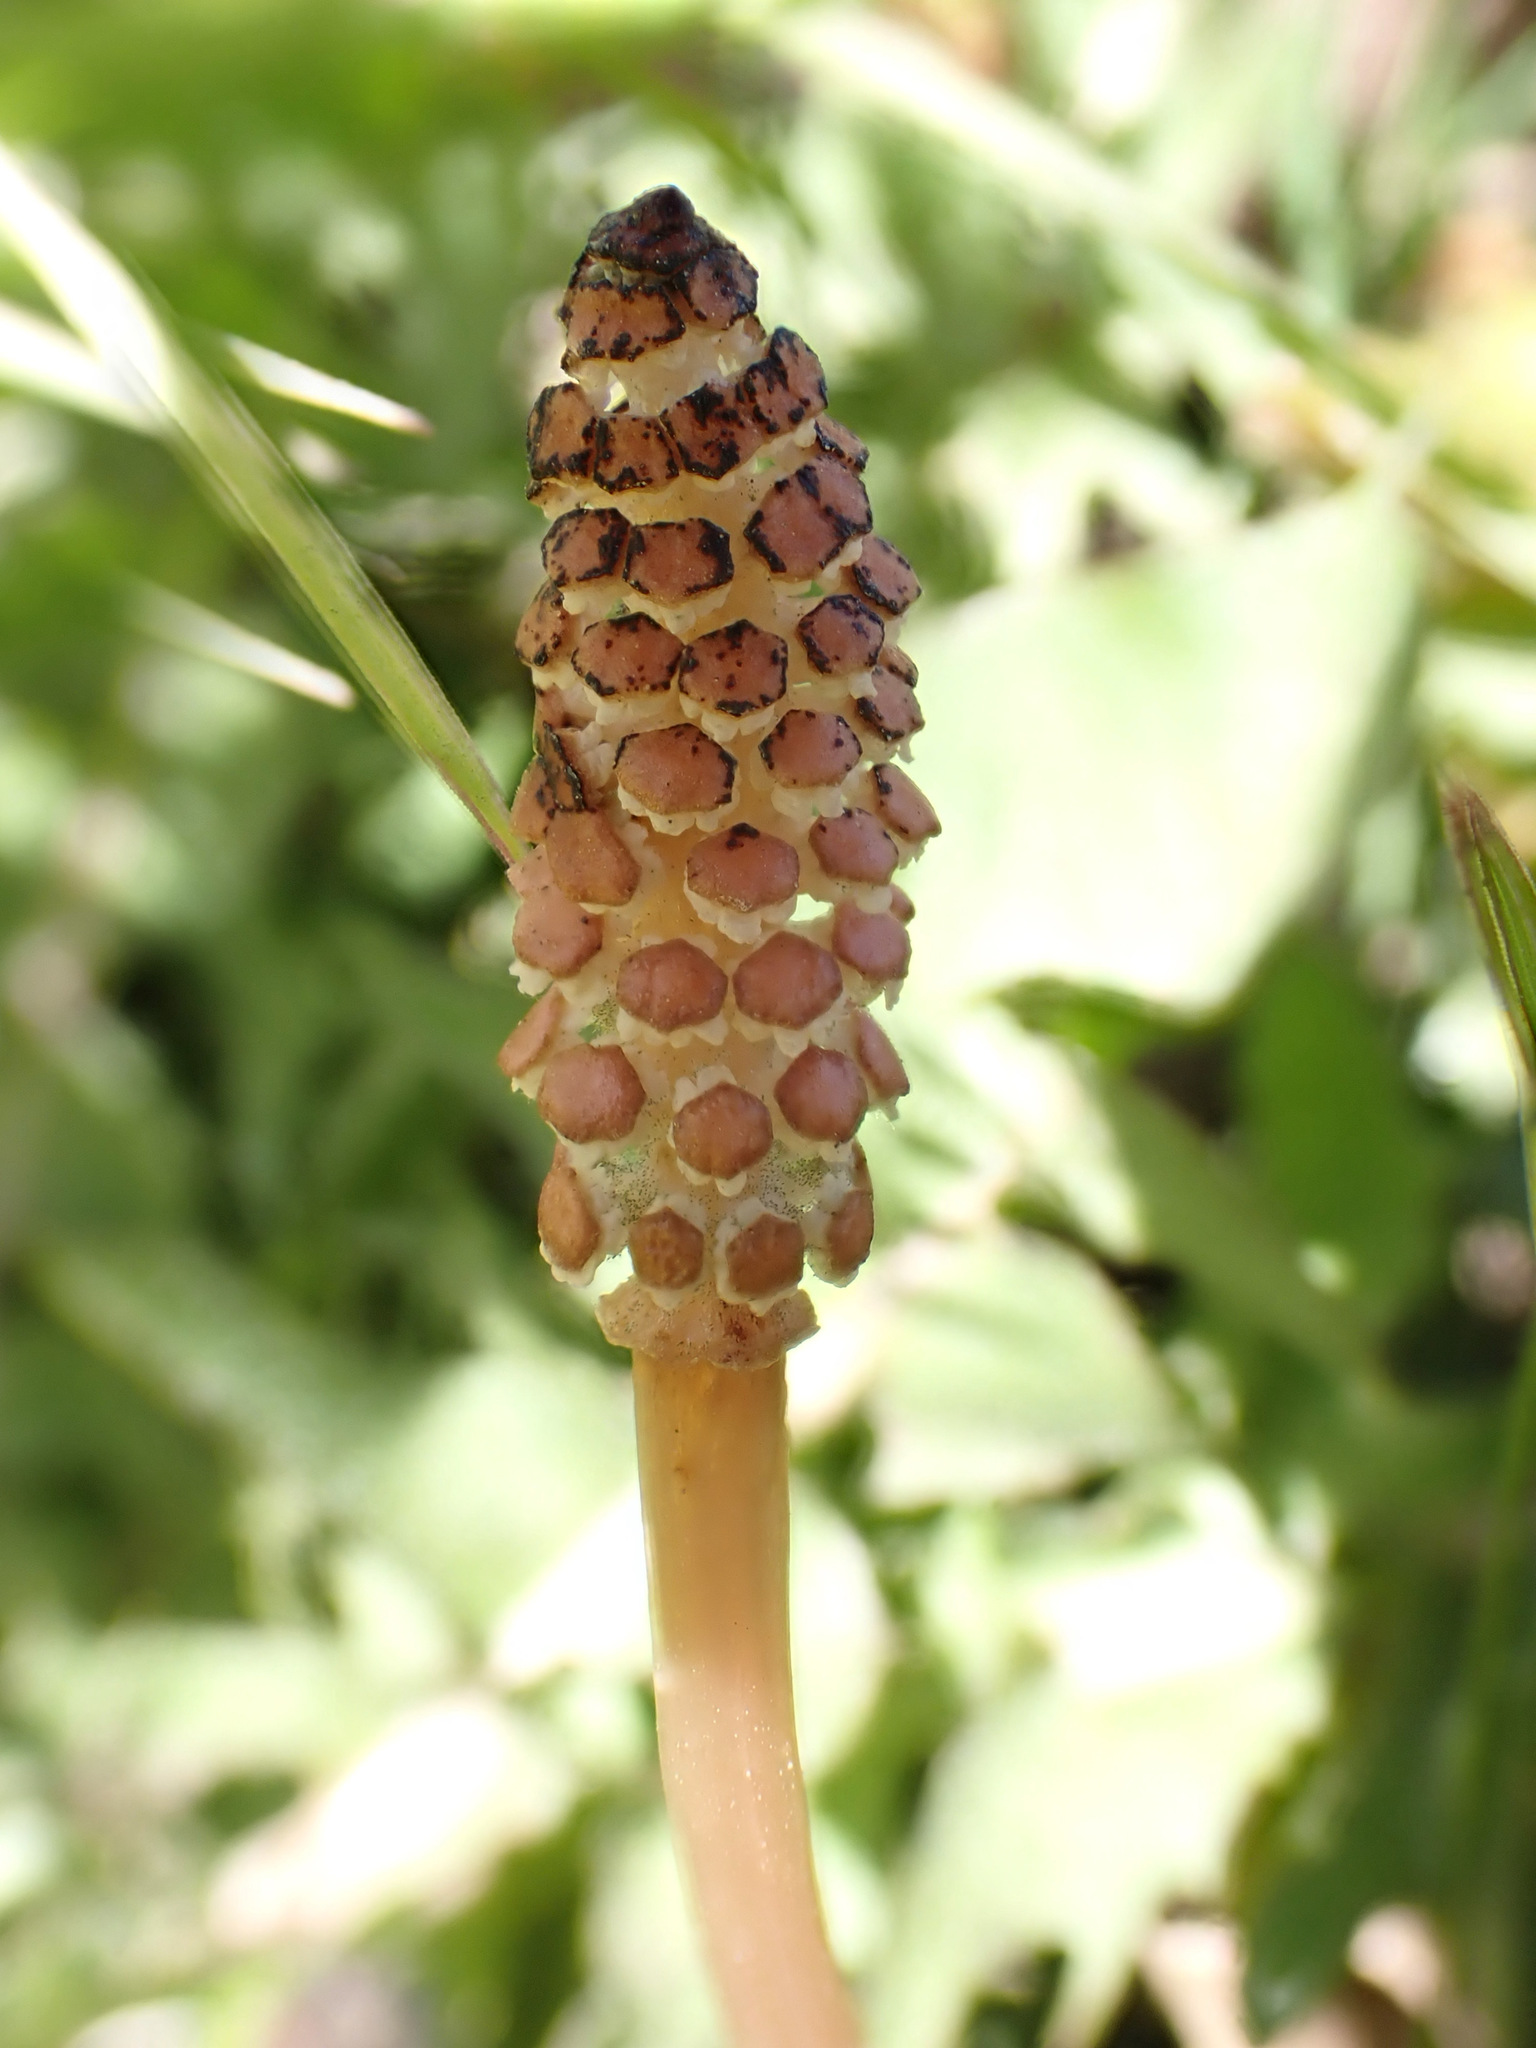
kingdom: Plantae
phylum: Tracheophyta
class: Polypodiopsida
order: Equisetales
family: Equisetaceae
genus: Equisetum
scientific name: Equisetum arvense
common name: Field horsetail
